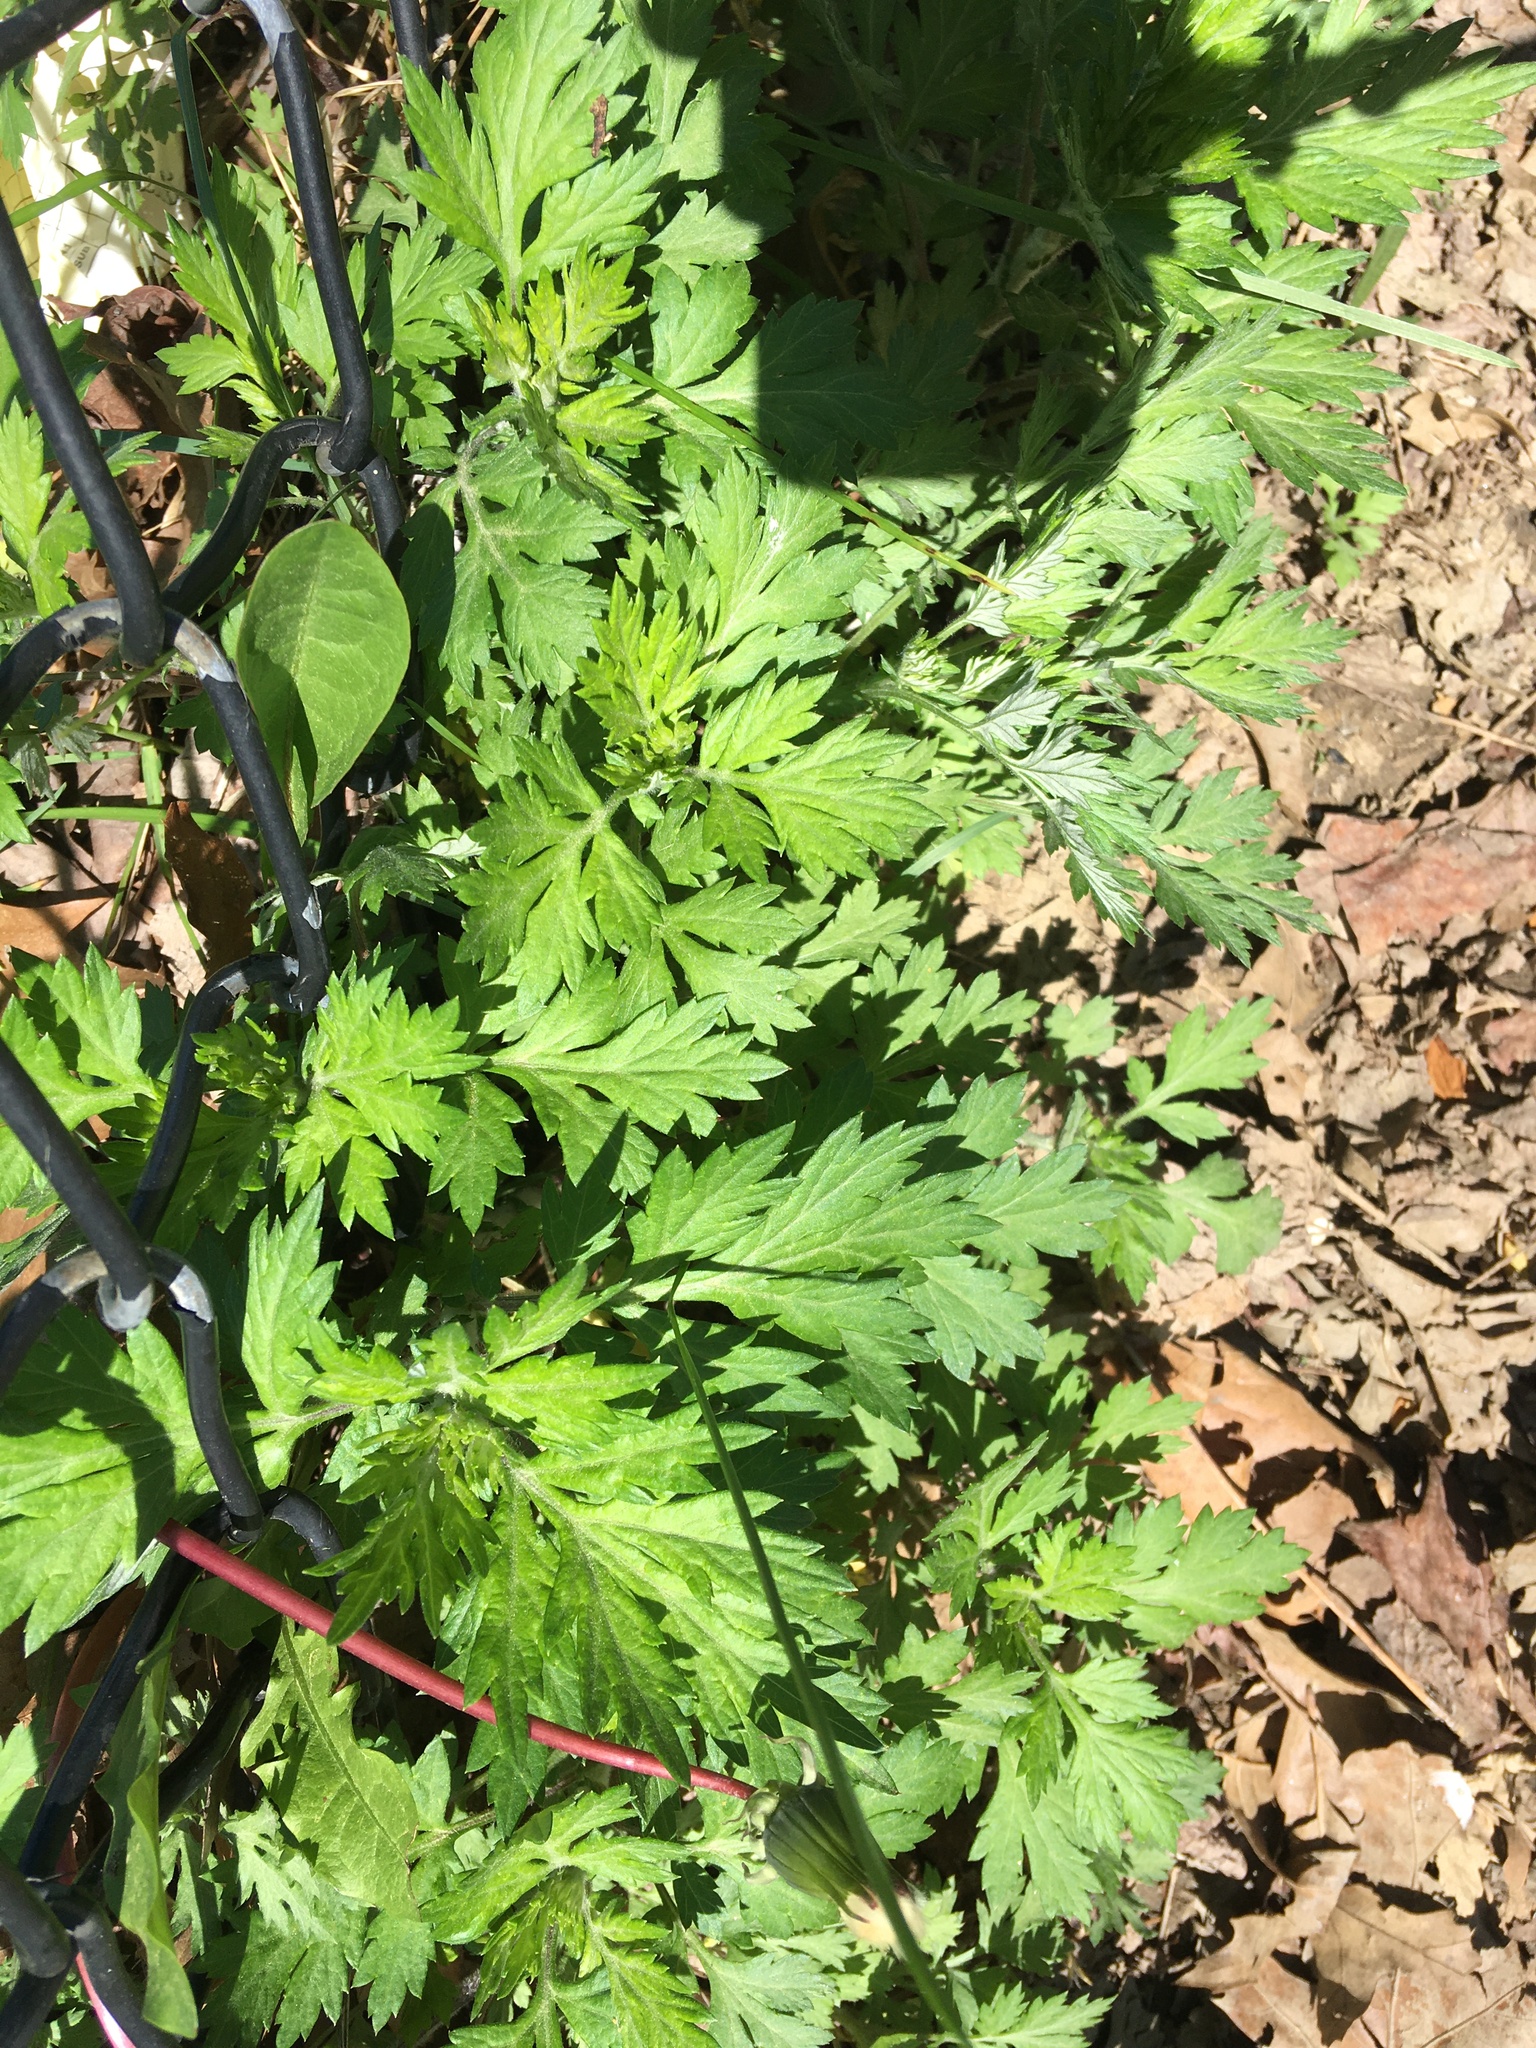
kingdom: Plantae
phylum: Tracheophyta
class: Magnoliopsida
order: Asterales
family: Asteraceae
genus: Artemisia
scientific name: Artemisia vulgaris
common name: Mugwort
